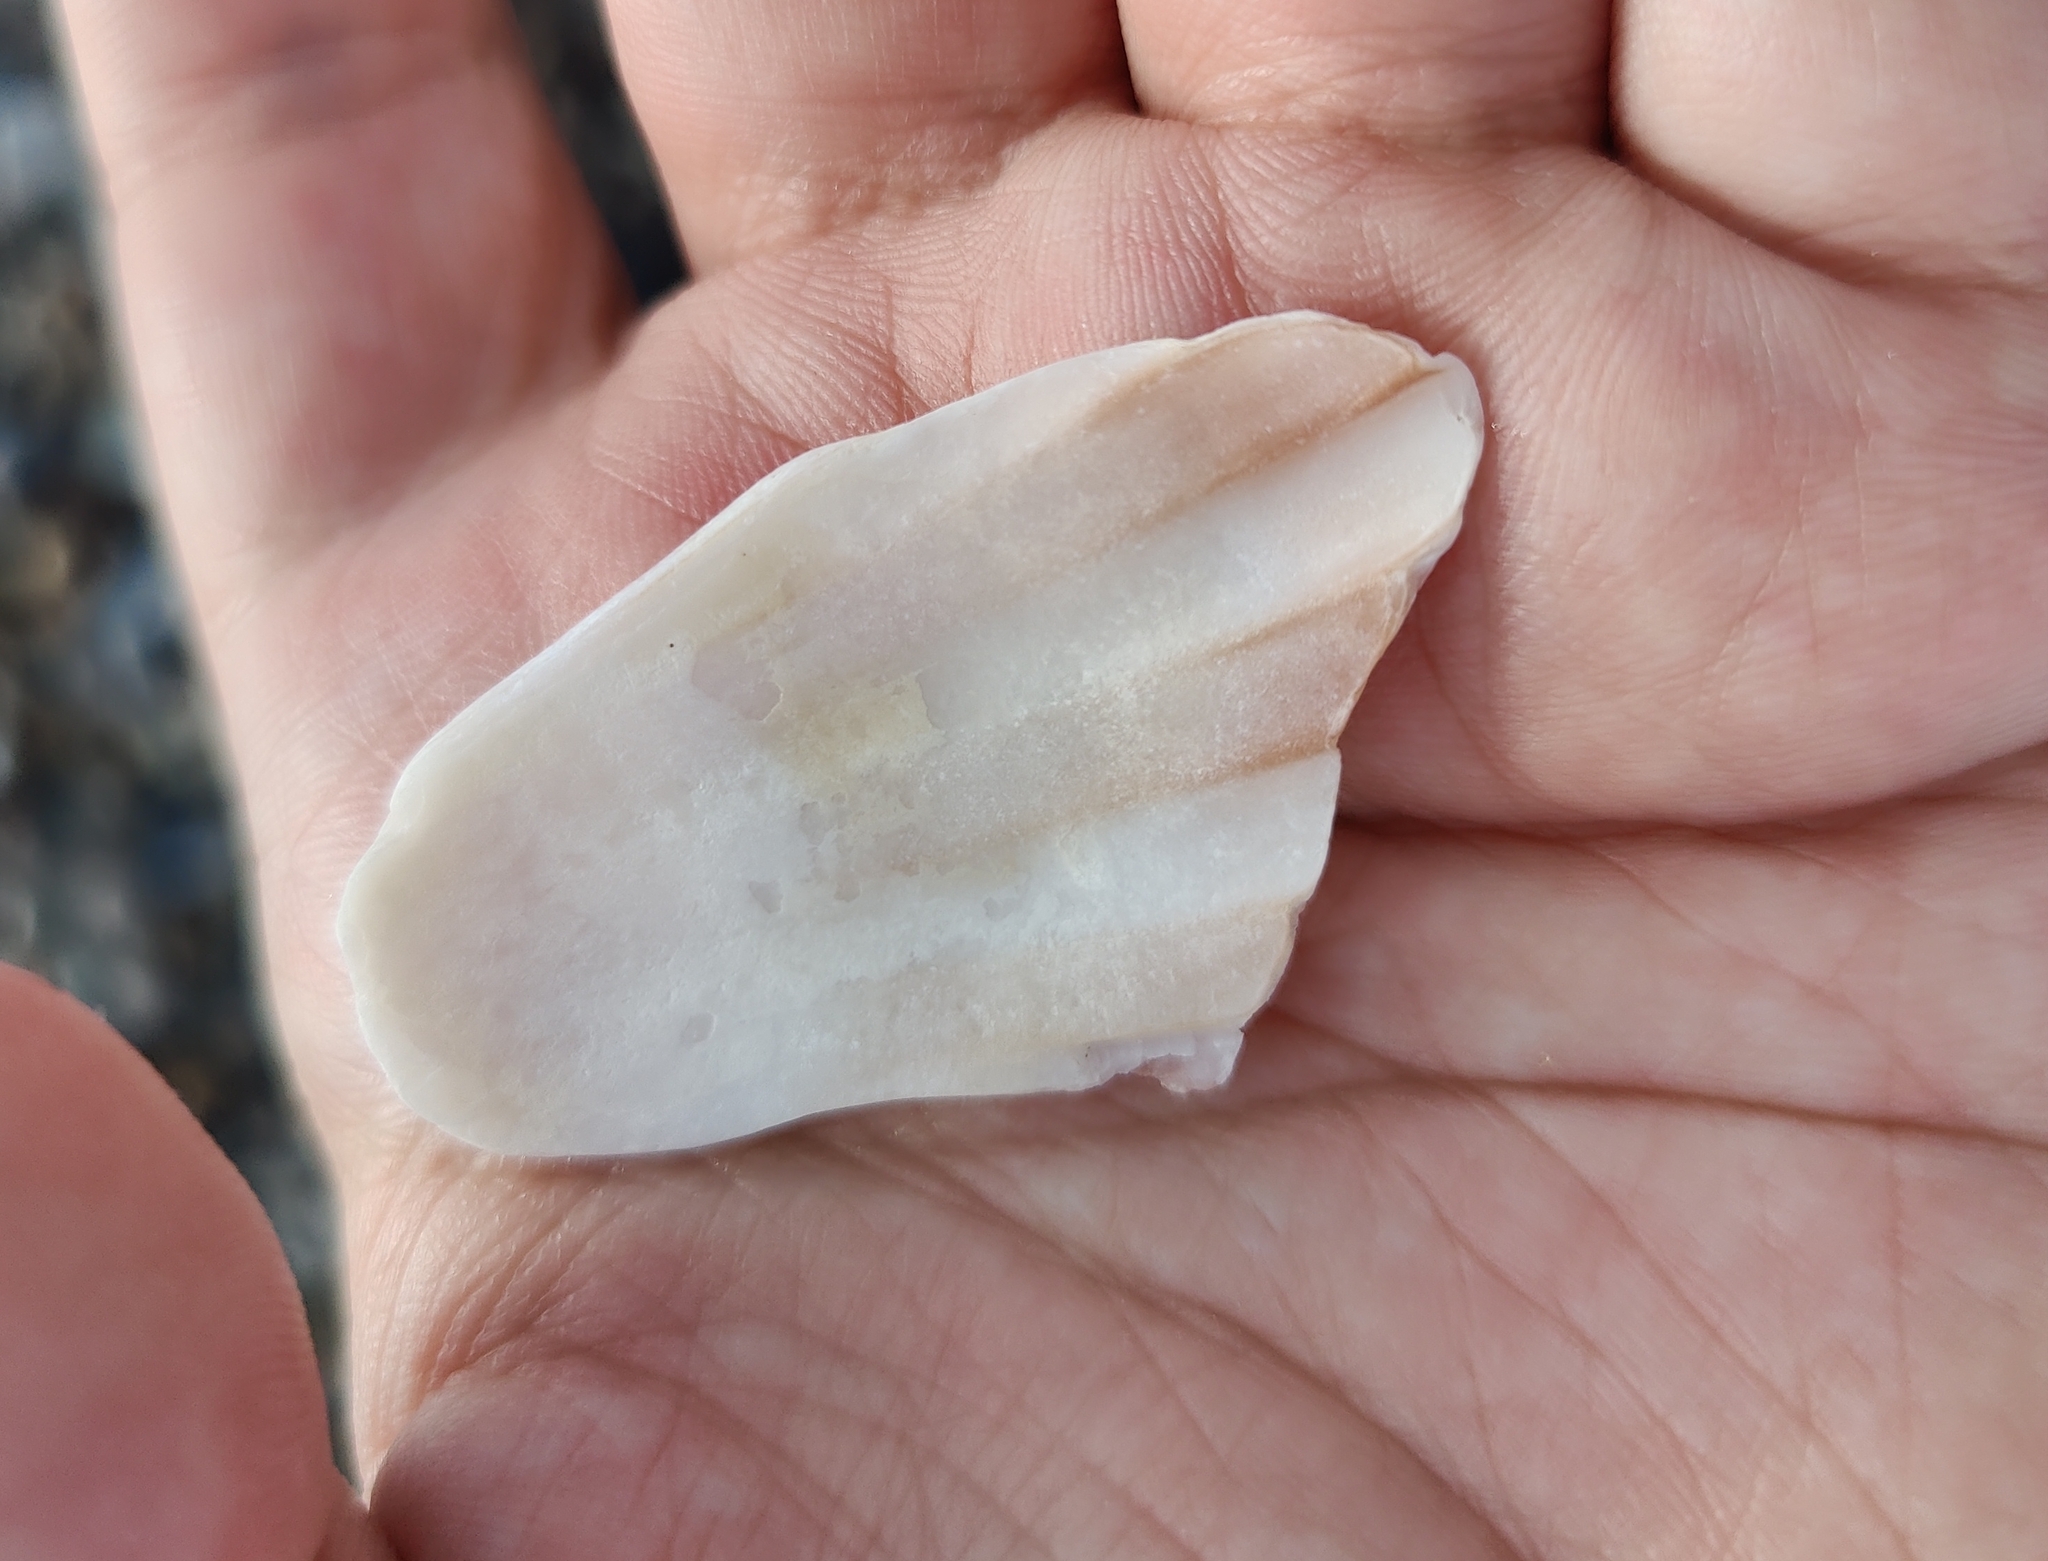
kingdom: Animalia
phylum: Mollusca
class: Bivalvia
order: Pectinida
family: Pectinidae
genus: Pecten
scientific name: Pecten maximus
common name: Great scallop
